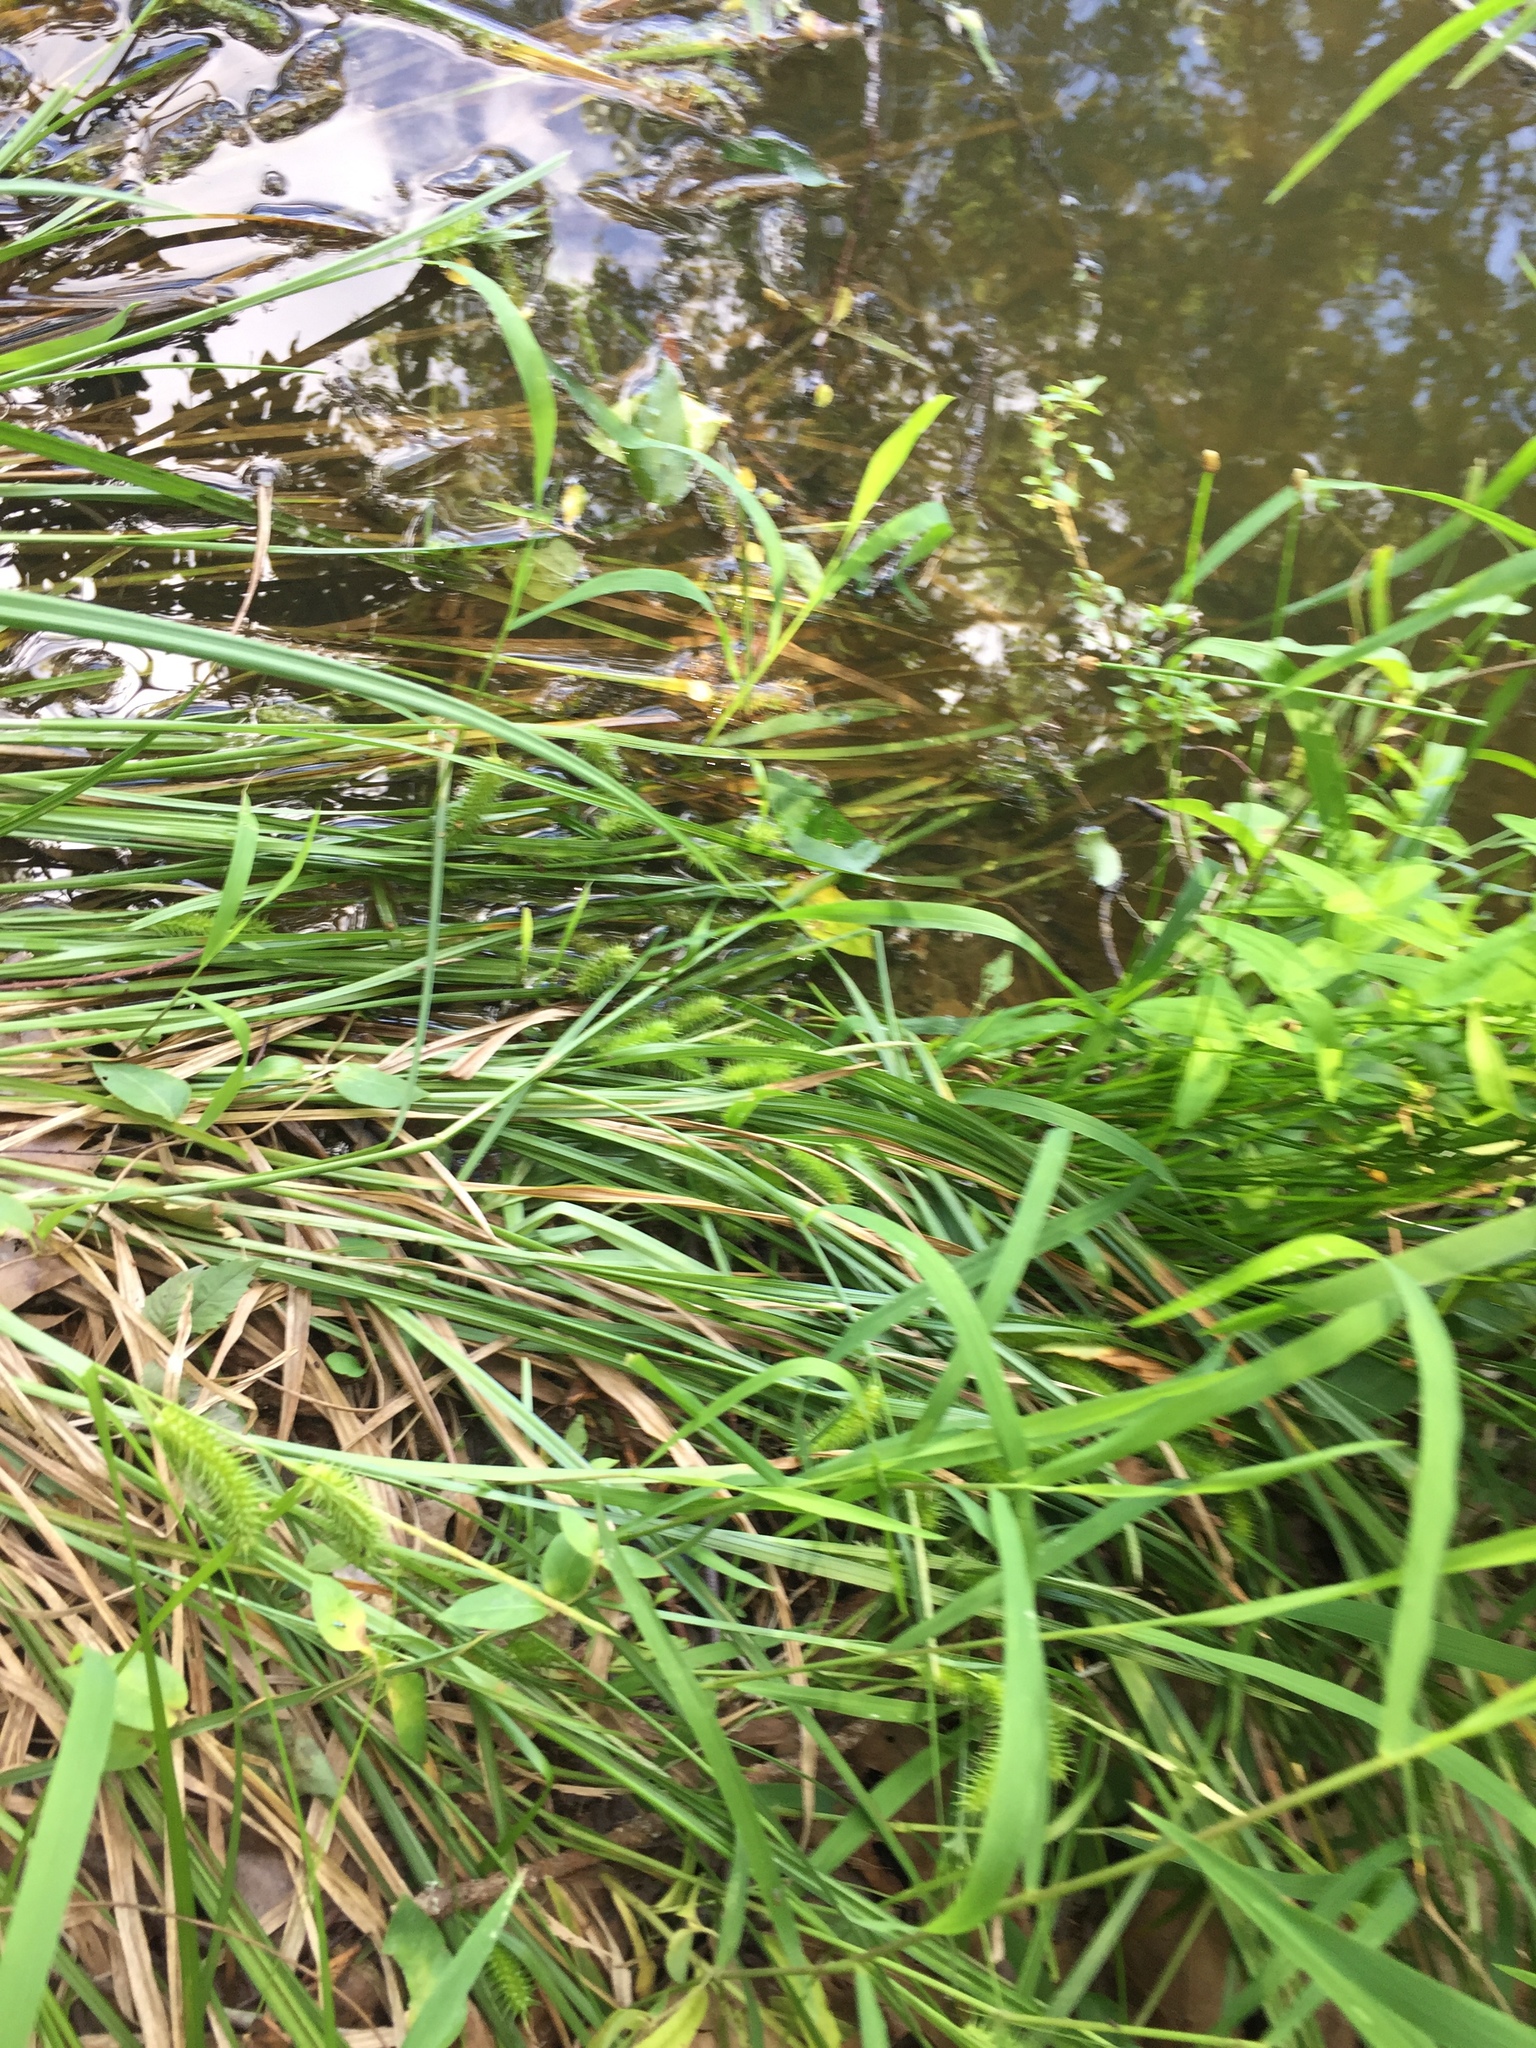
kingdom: Plantae
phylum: Tracheophyta
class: Liliopsida
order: Poales
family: Cyperaceae
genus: Carex
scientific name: Carex lurida
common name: Sallow sedge
